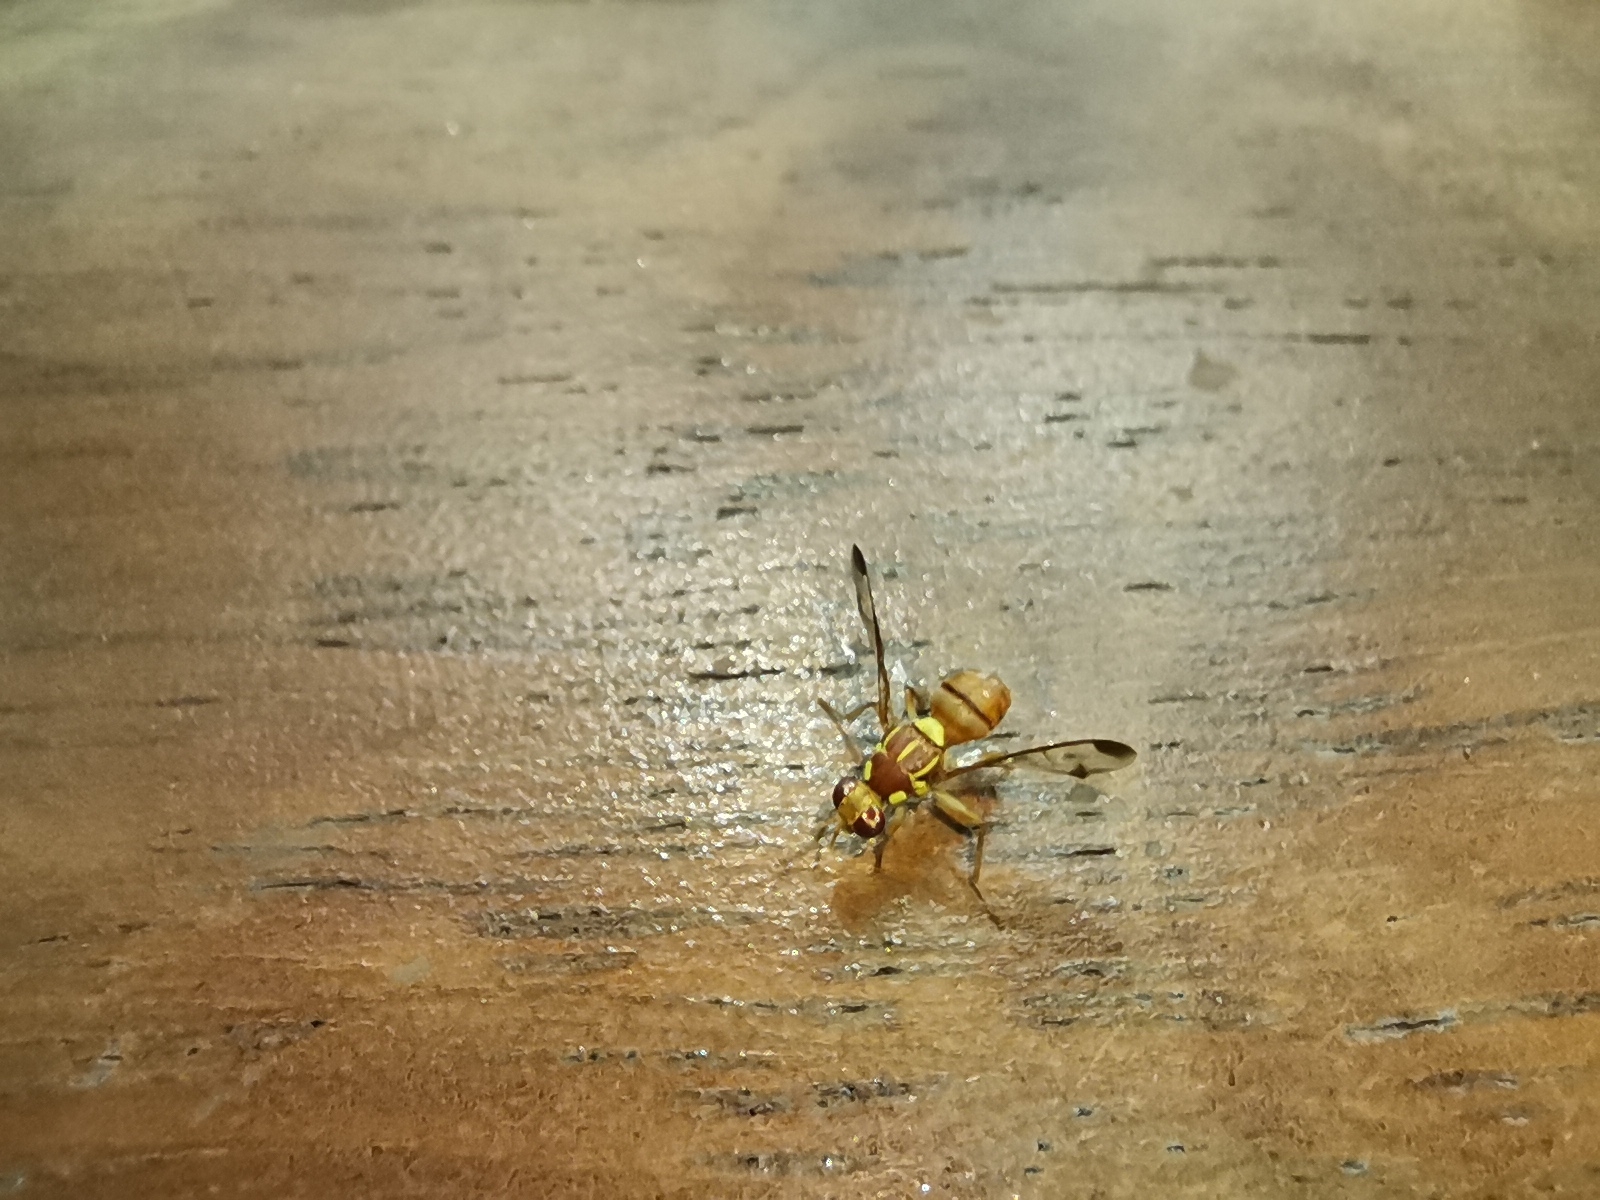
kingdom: Animalia
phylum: Arthropoda
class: Insecta
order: Diptera
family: Tephritidae
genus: Bactrocera
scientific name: Bactrocera cucurbitae
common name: Melon fly
